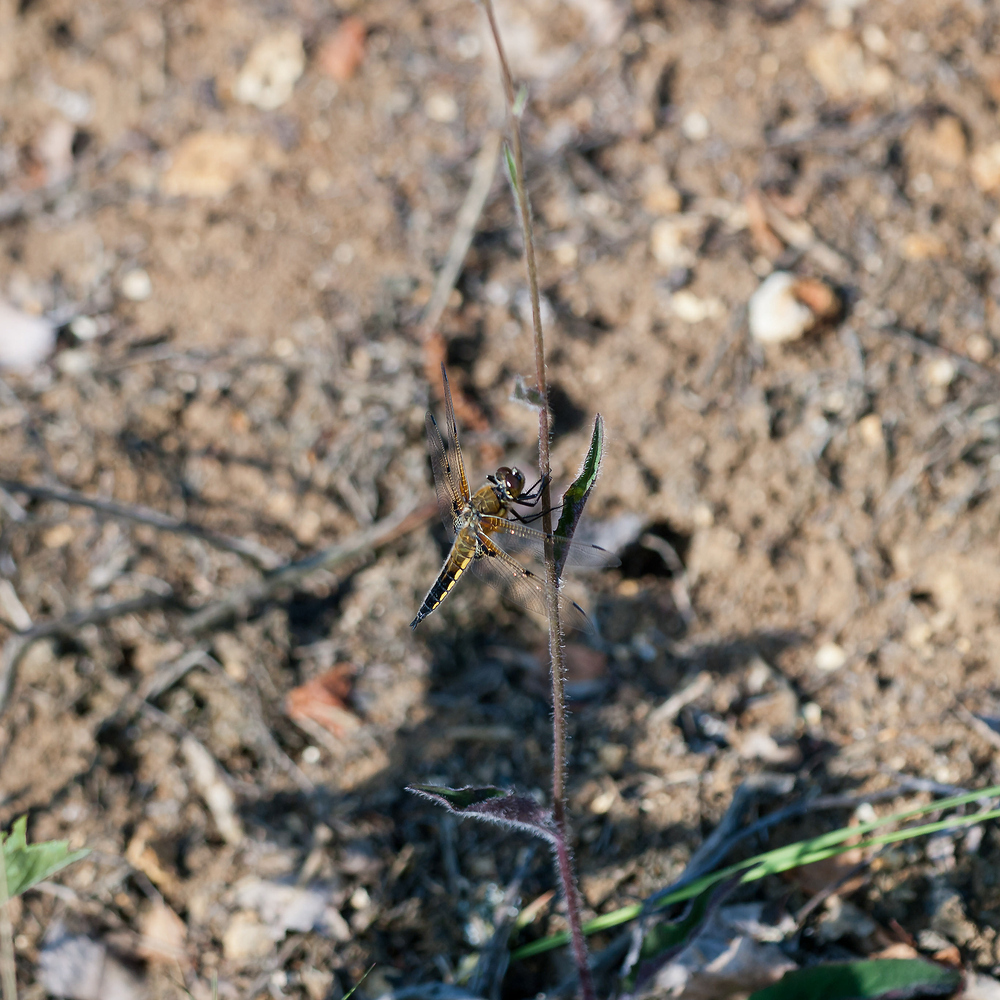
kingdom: Animalia
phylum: Arthropoda
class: Insecta
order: Odonata
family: Libellulidae
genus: Libellula
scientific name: Libellula quadrimaculata
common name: Four-spotted chaser
